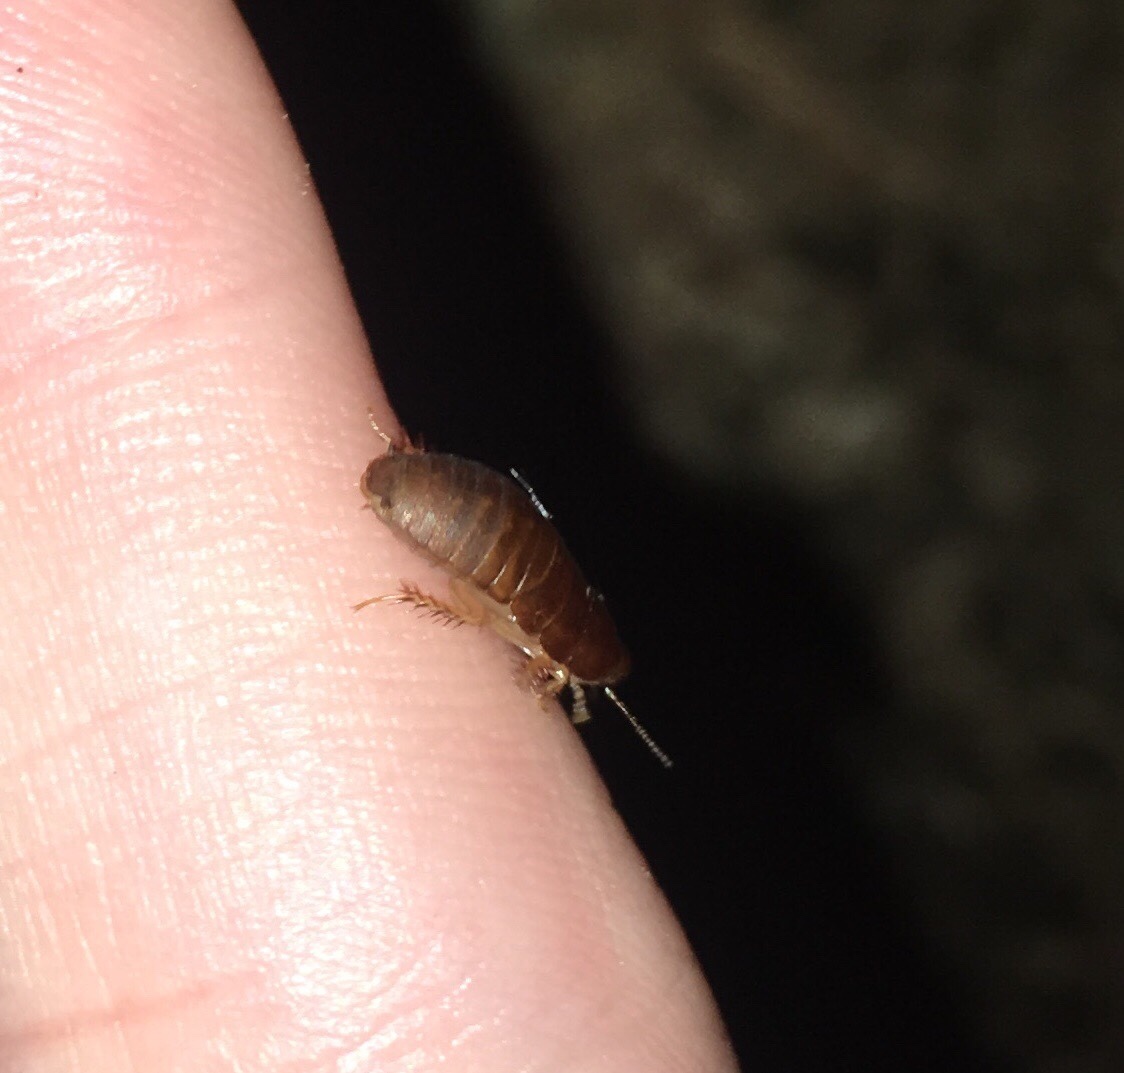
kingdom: Animalia
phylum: Arthropoda
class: Insecta
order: Blattodea
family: Blaberidae
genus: Pycnoscelus
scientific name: Pycnoscelus surinamensis
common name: Surinam cockroach
